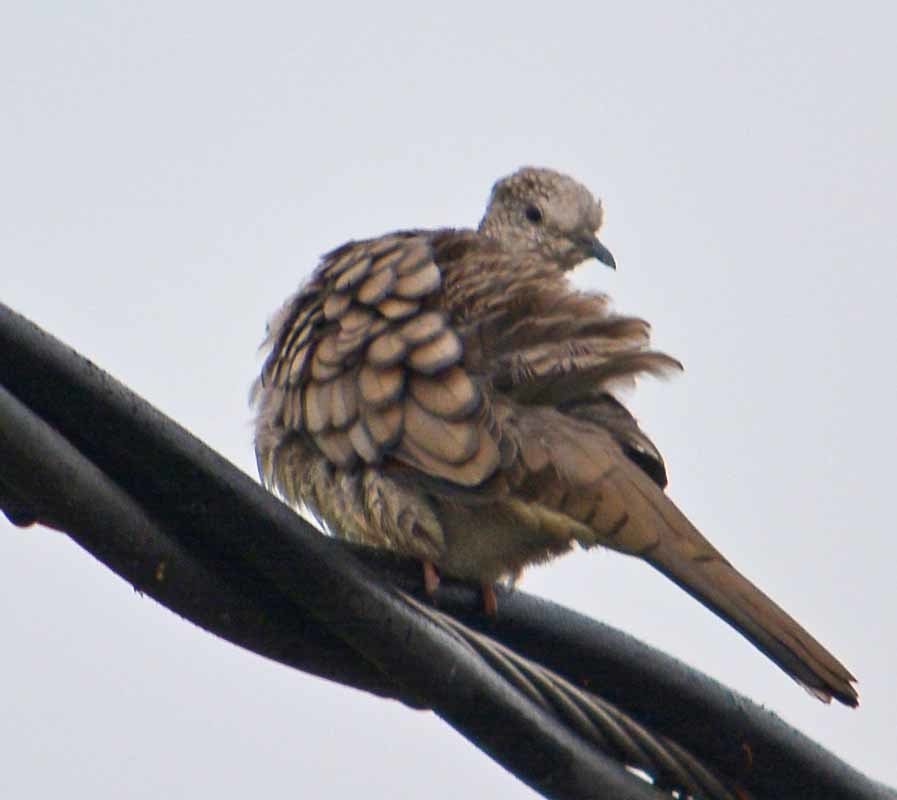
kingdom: Animalia
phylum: Chordata
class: Aves
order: Columbiformes
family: Columbidae
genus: Columbina
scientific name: Columbina inca
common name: Inca dove
